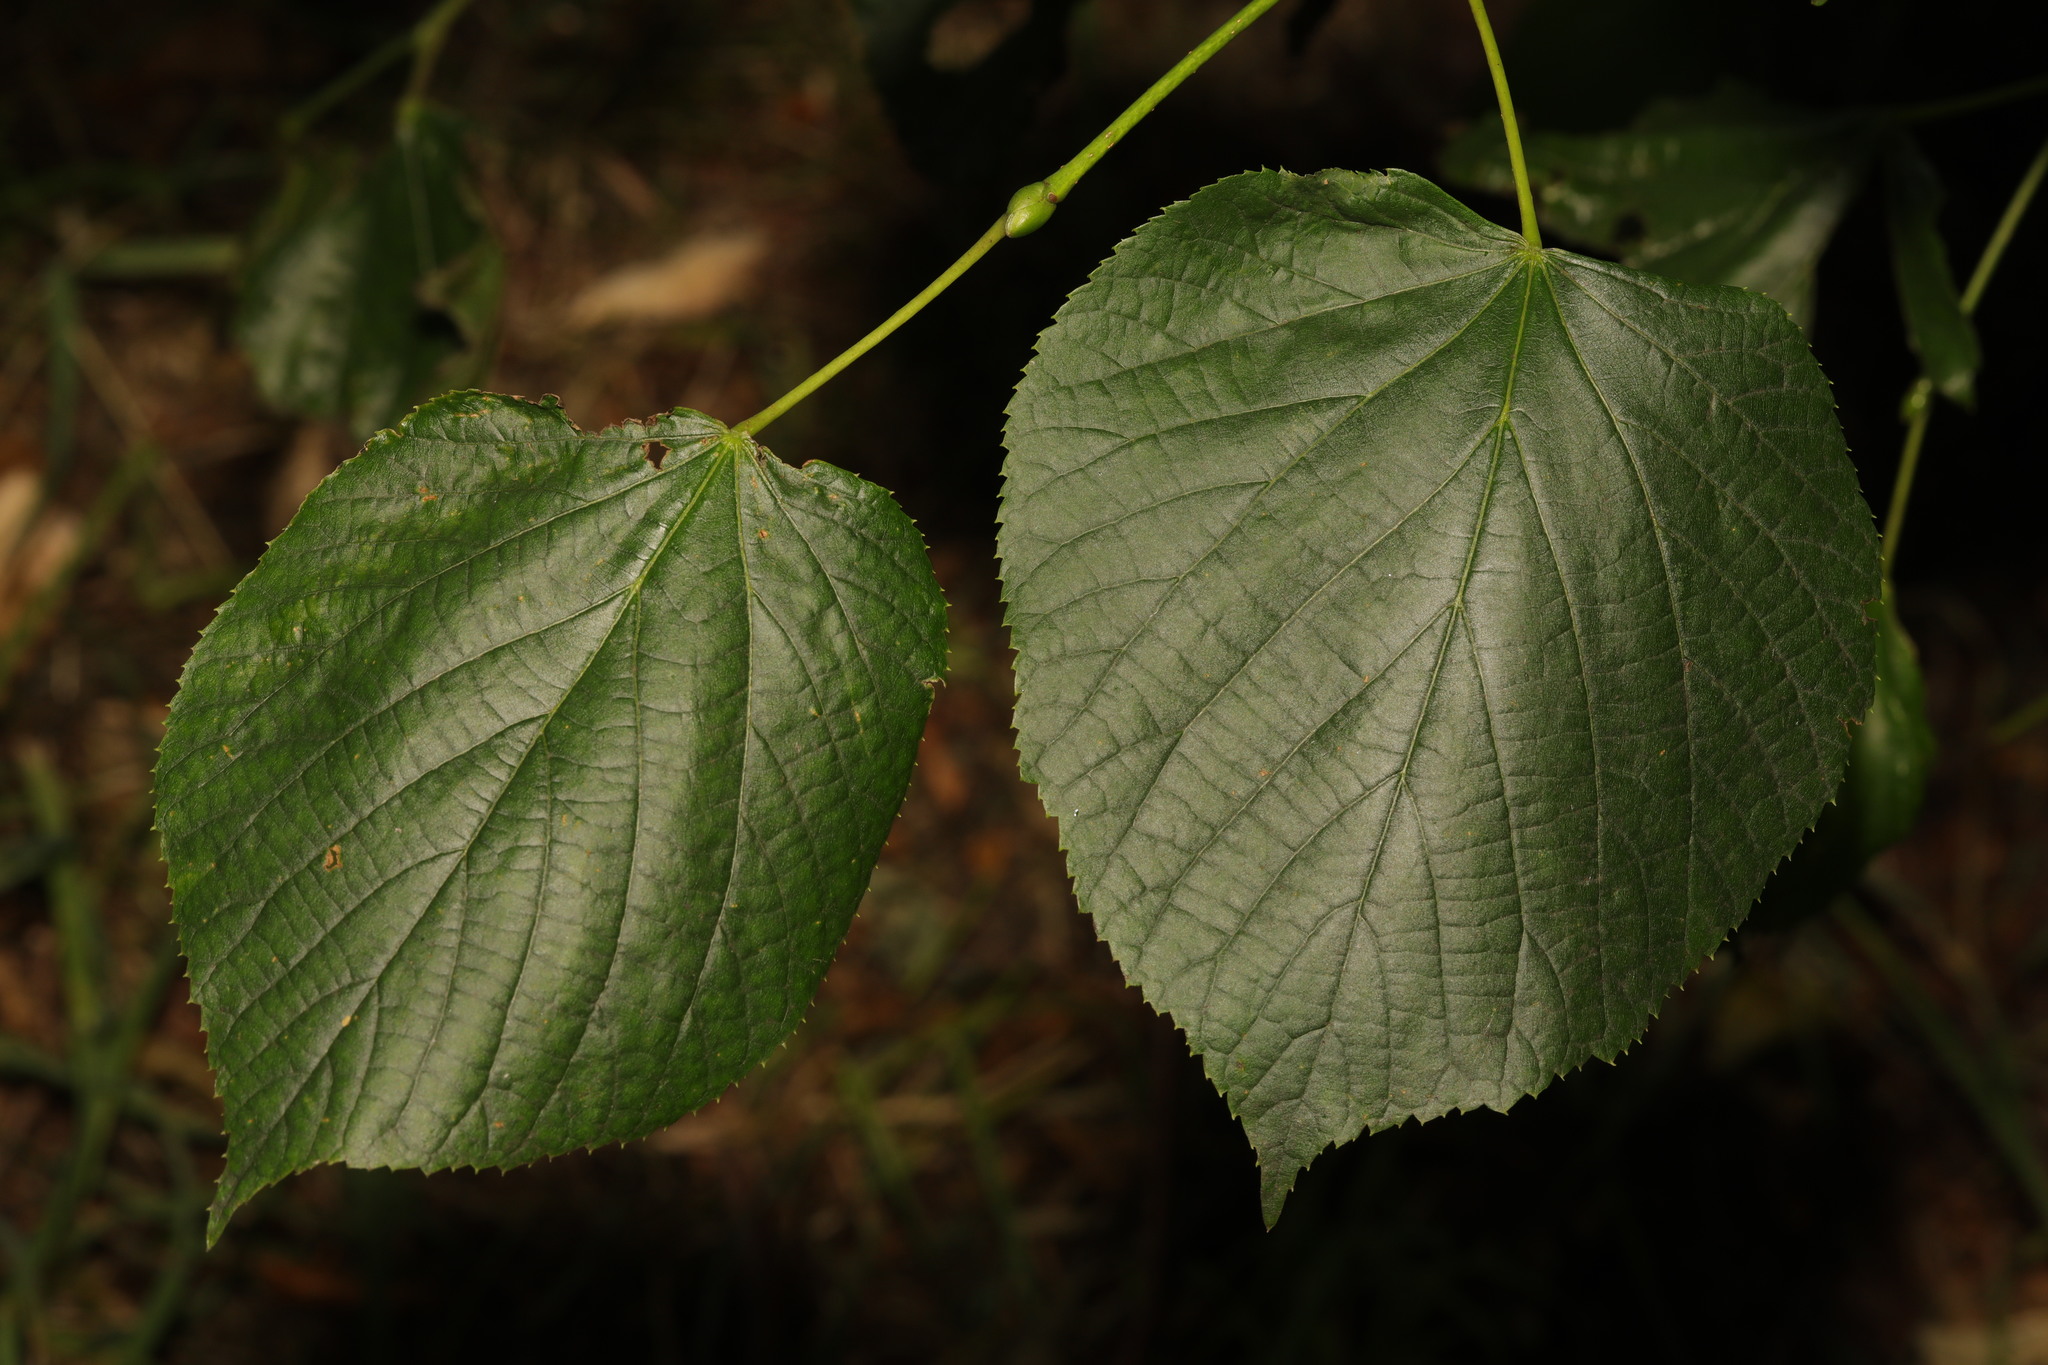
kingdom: Plantae
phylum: Tracheophyta
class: Magnoliopsida
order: Malvales
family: Malvaceae
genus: Tilia
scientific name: Tilia europaea
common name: European linden
